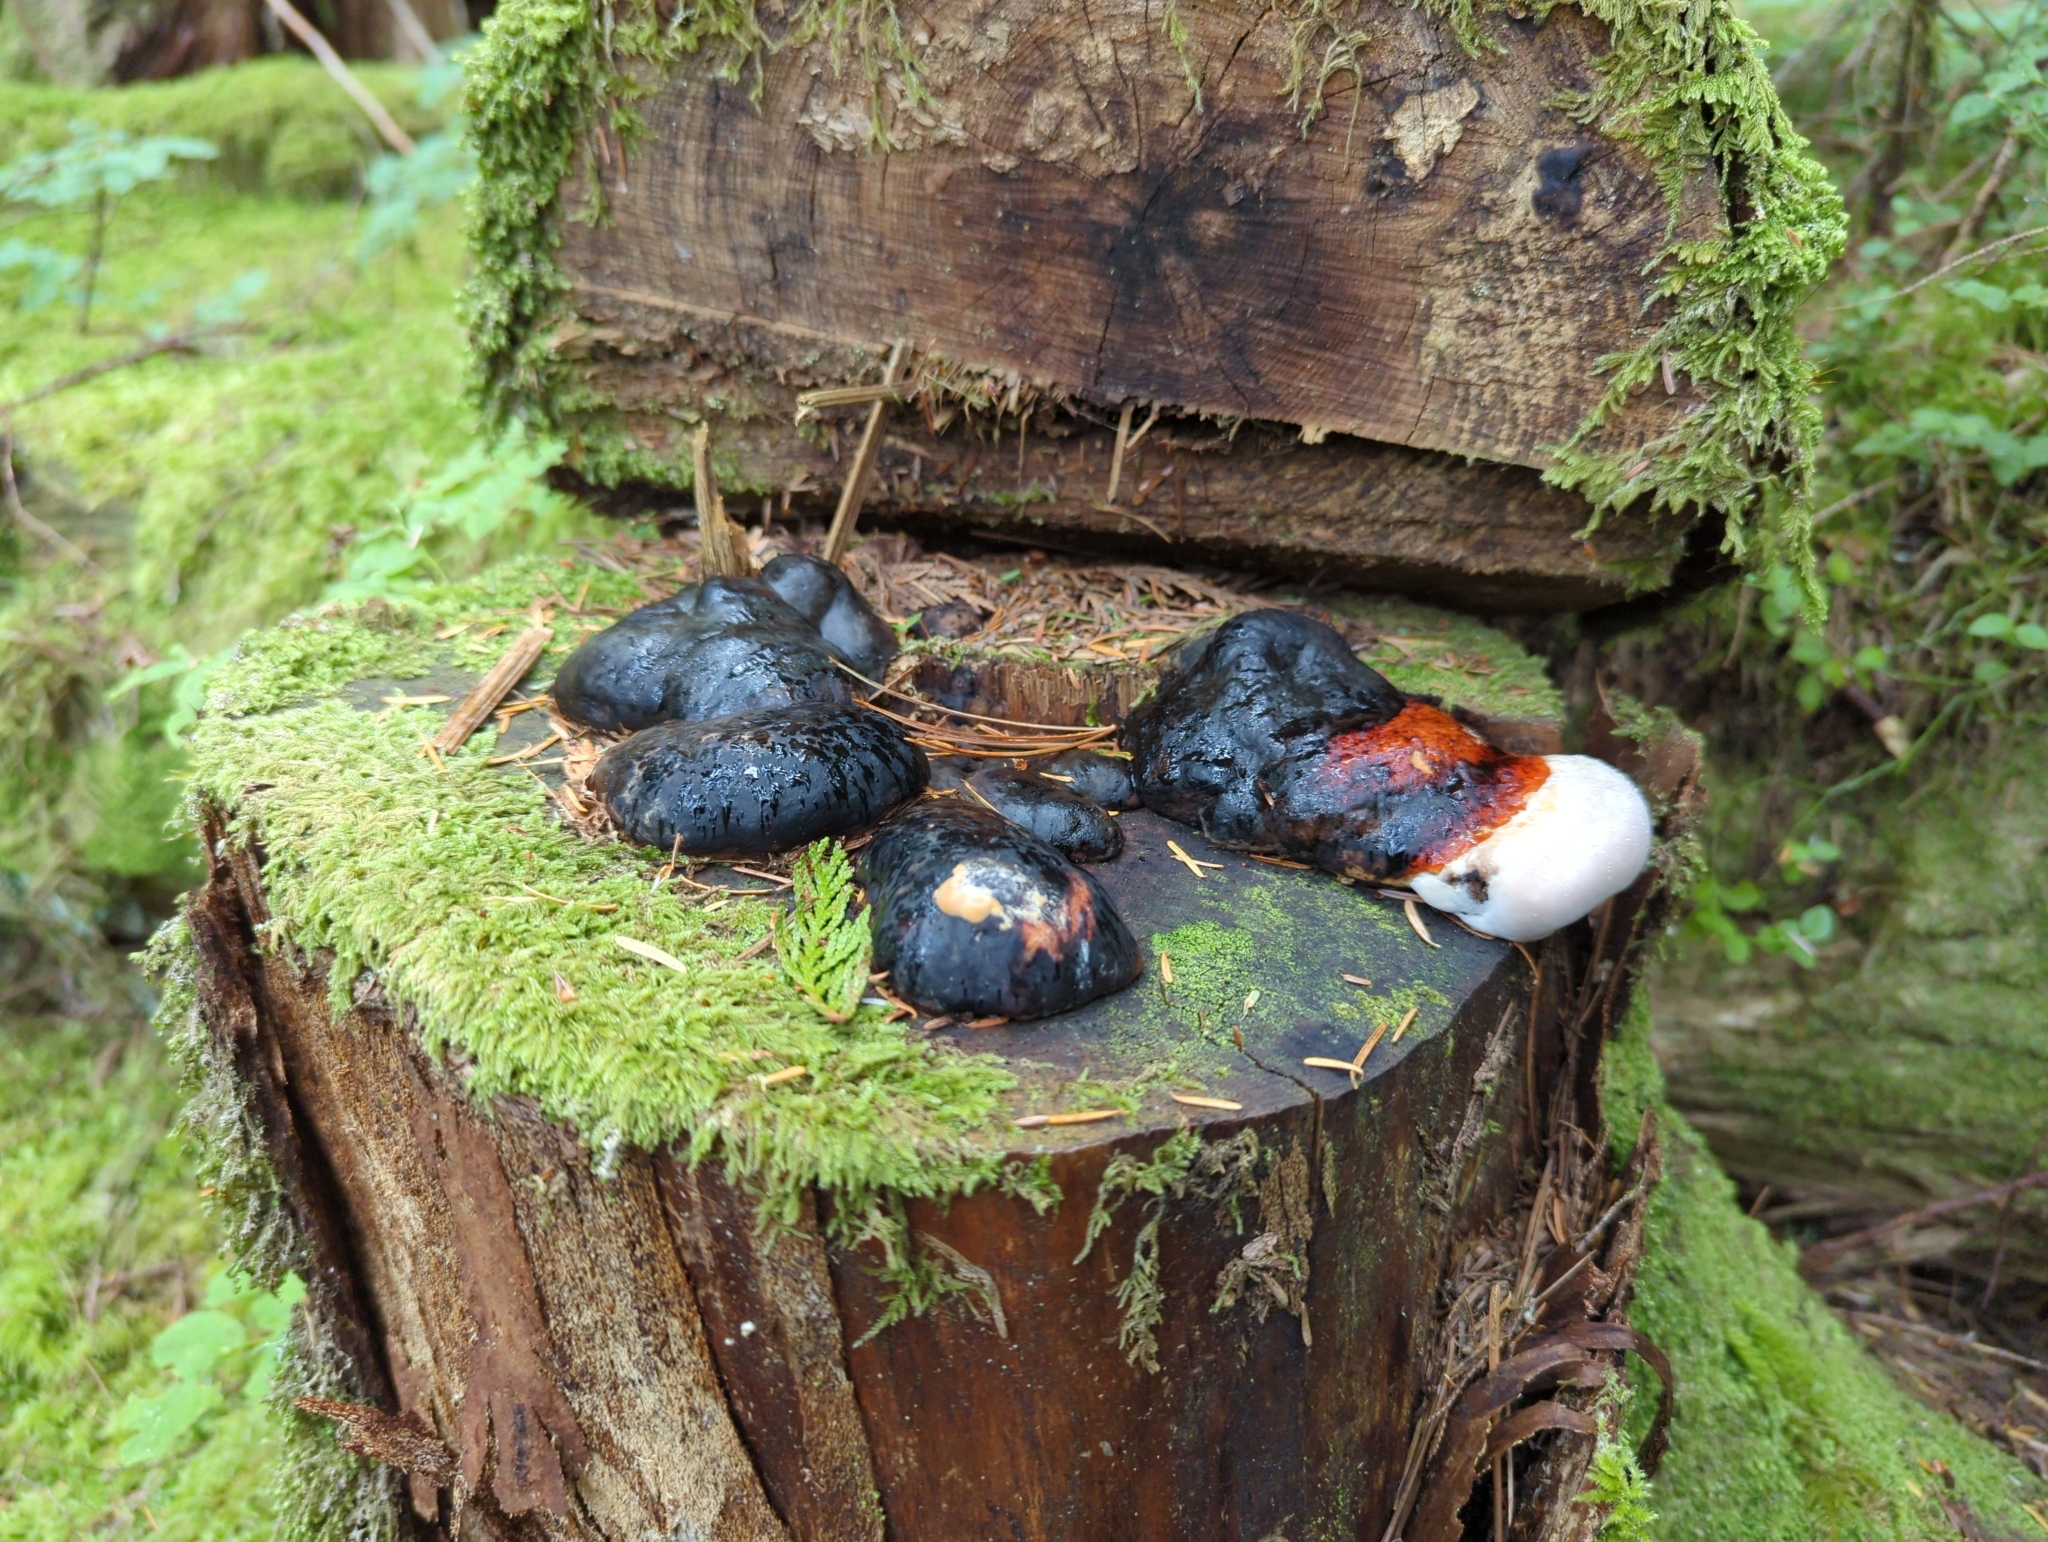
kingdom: Fungi
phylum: Basidiomycota
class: Agaricomycetes
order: Polyporales
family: Fomitopsidaceae
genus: Fomitopsis
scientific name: Fomitopsis mounceae
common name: Northern red belt
